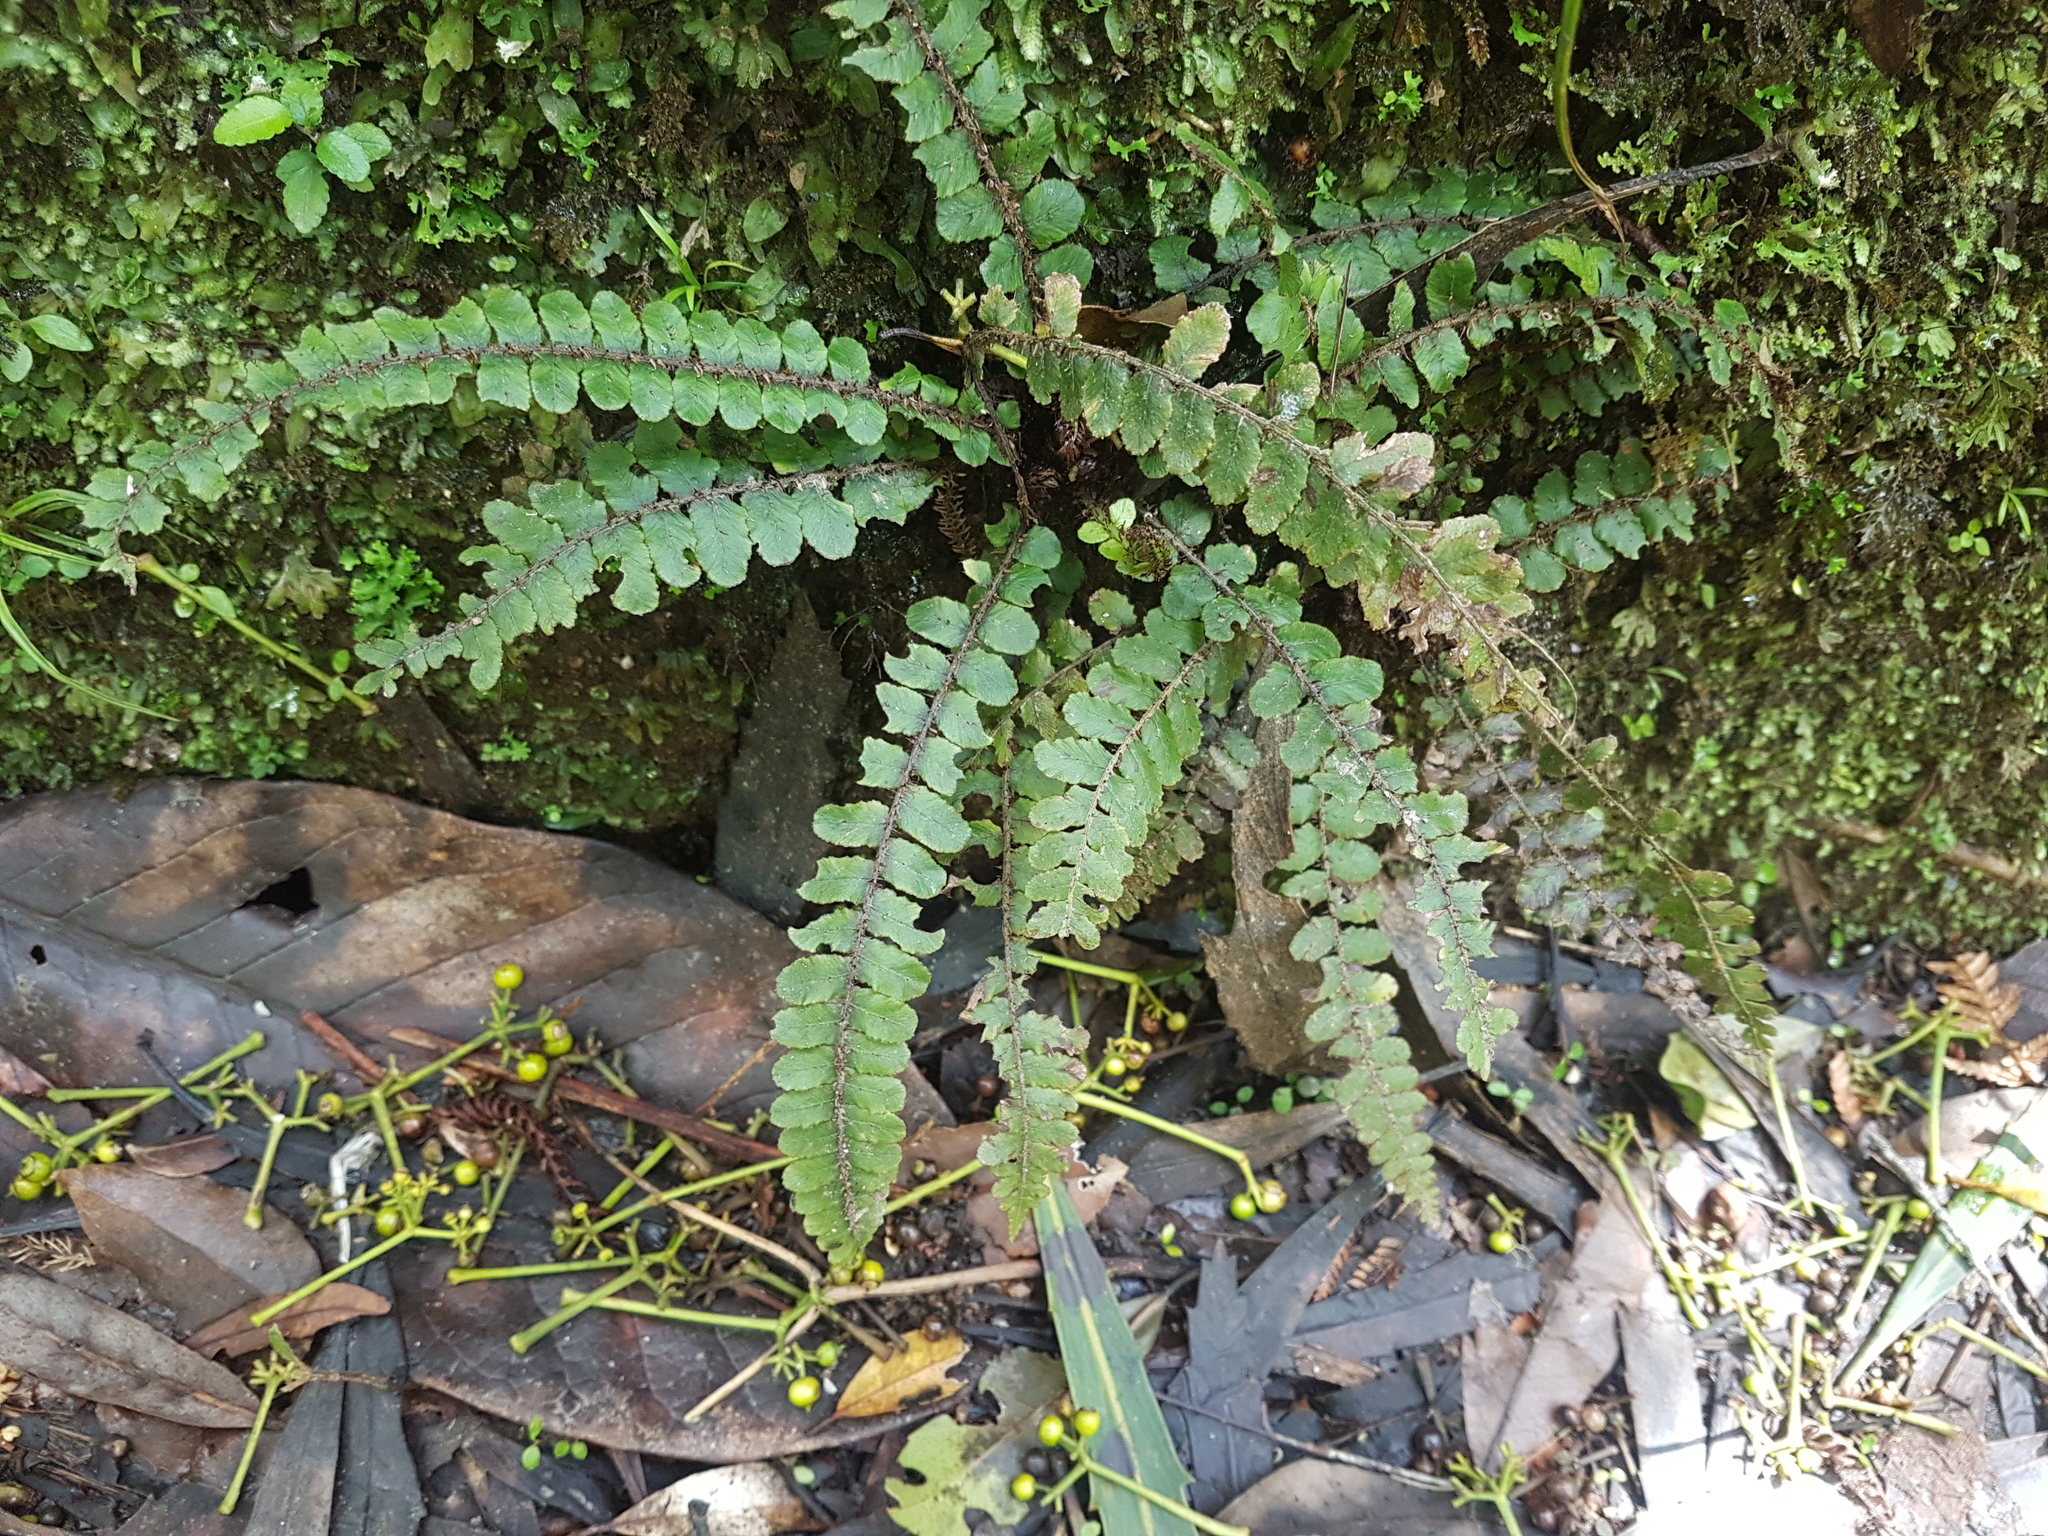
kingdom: Plantae
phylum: Tracheophyta
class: Polypodiopsida
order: Polypodiales
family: Blechnaceae
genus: Cranfillia
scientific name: Cranfillia fluviatilis
